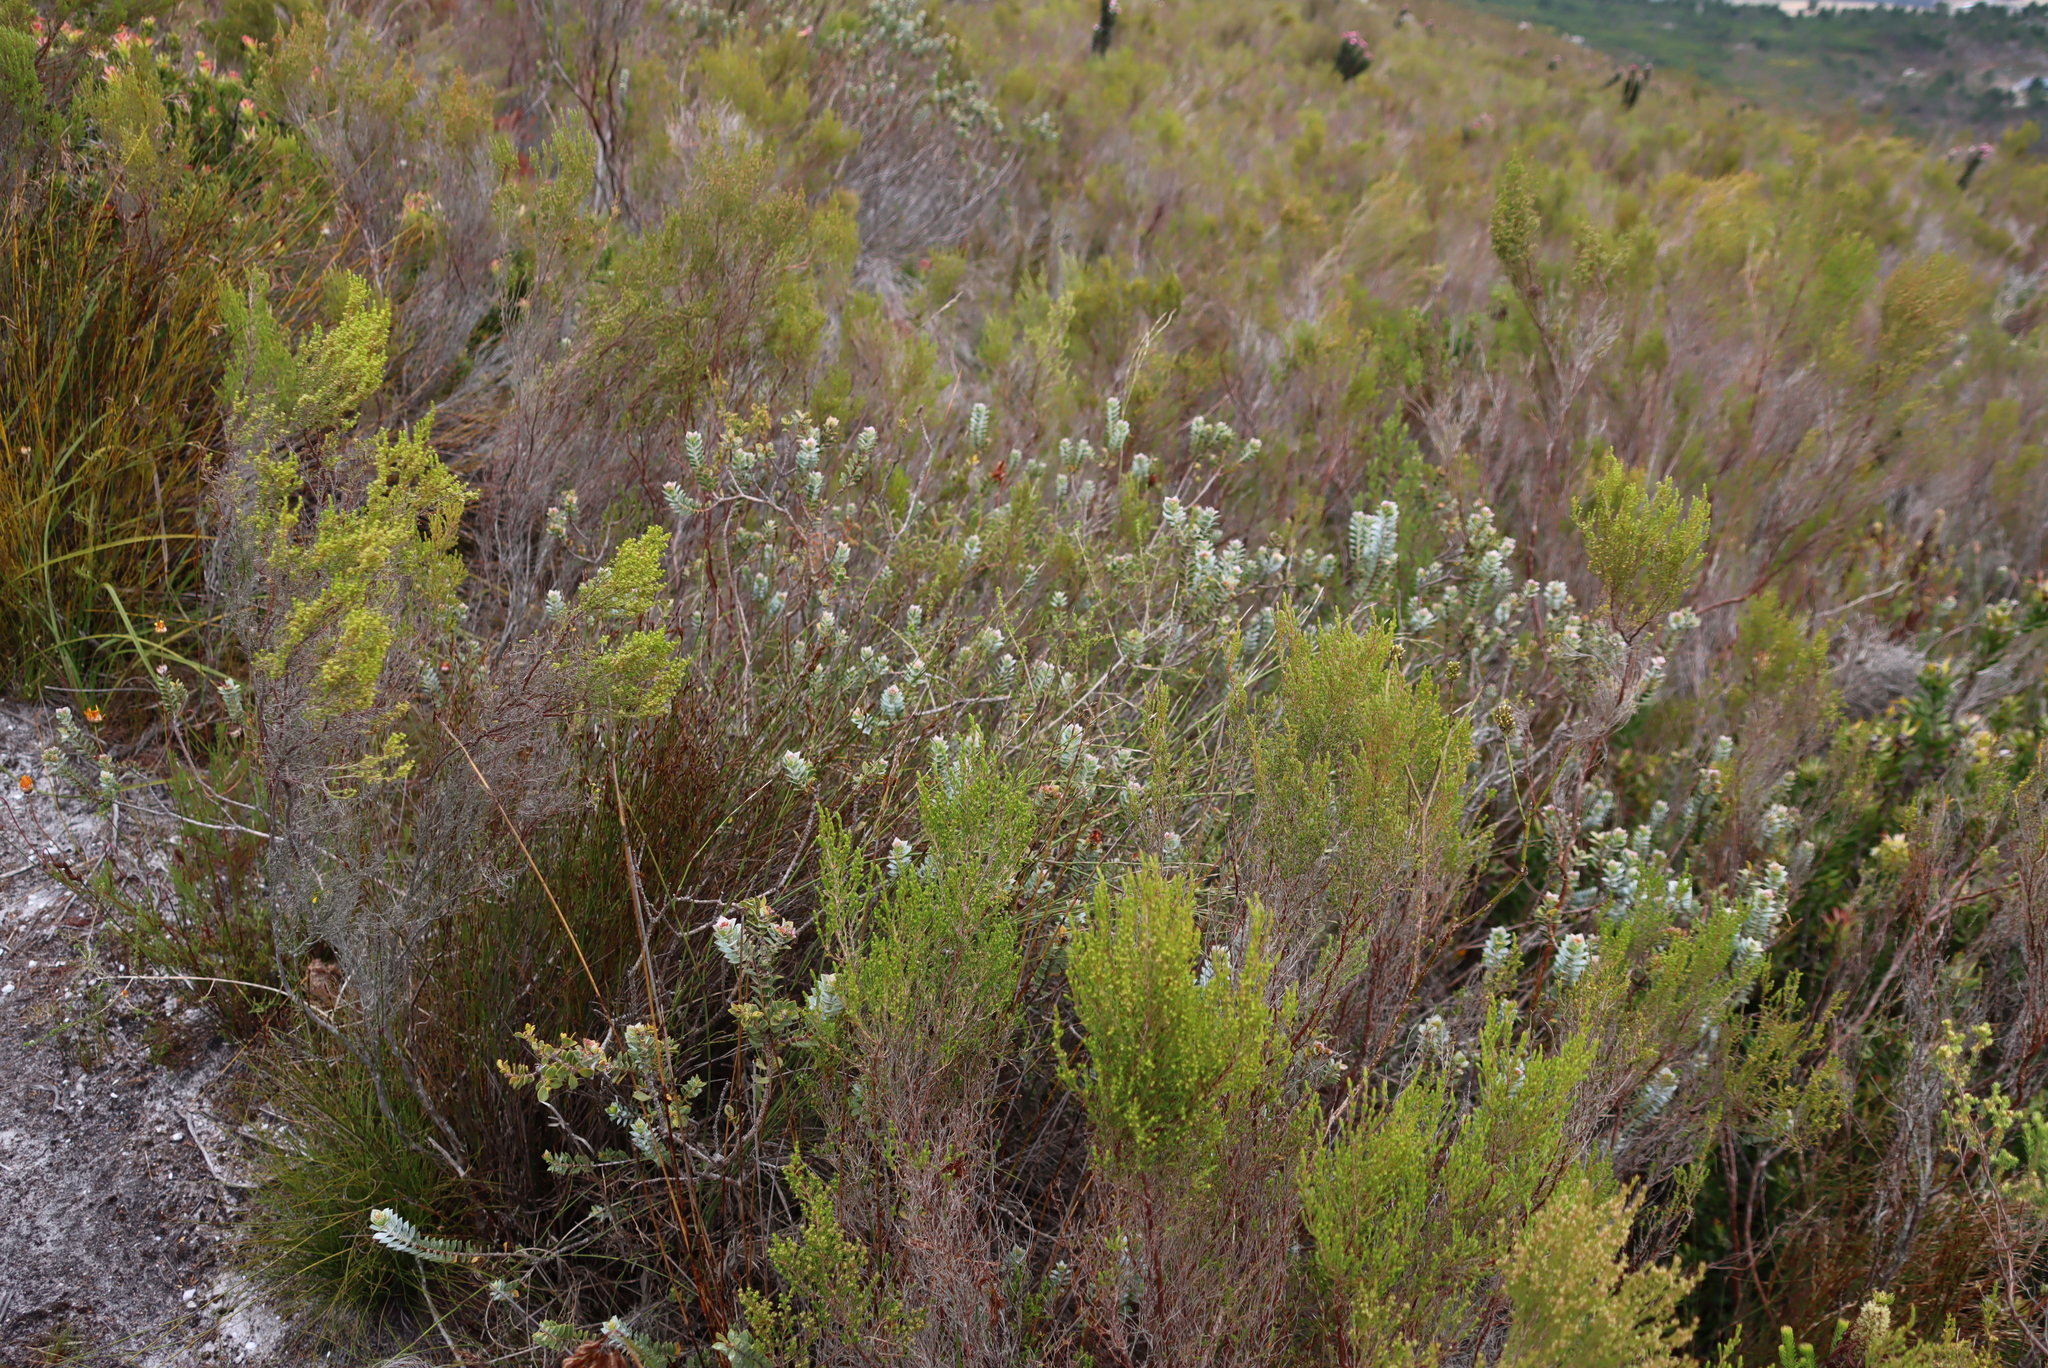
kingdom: Plantae
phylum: Tracheophyta
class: Magnoliopsida
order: Myrtales
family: Penaeaceae
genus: Saltera
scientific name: Saltera sarcocolla
